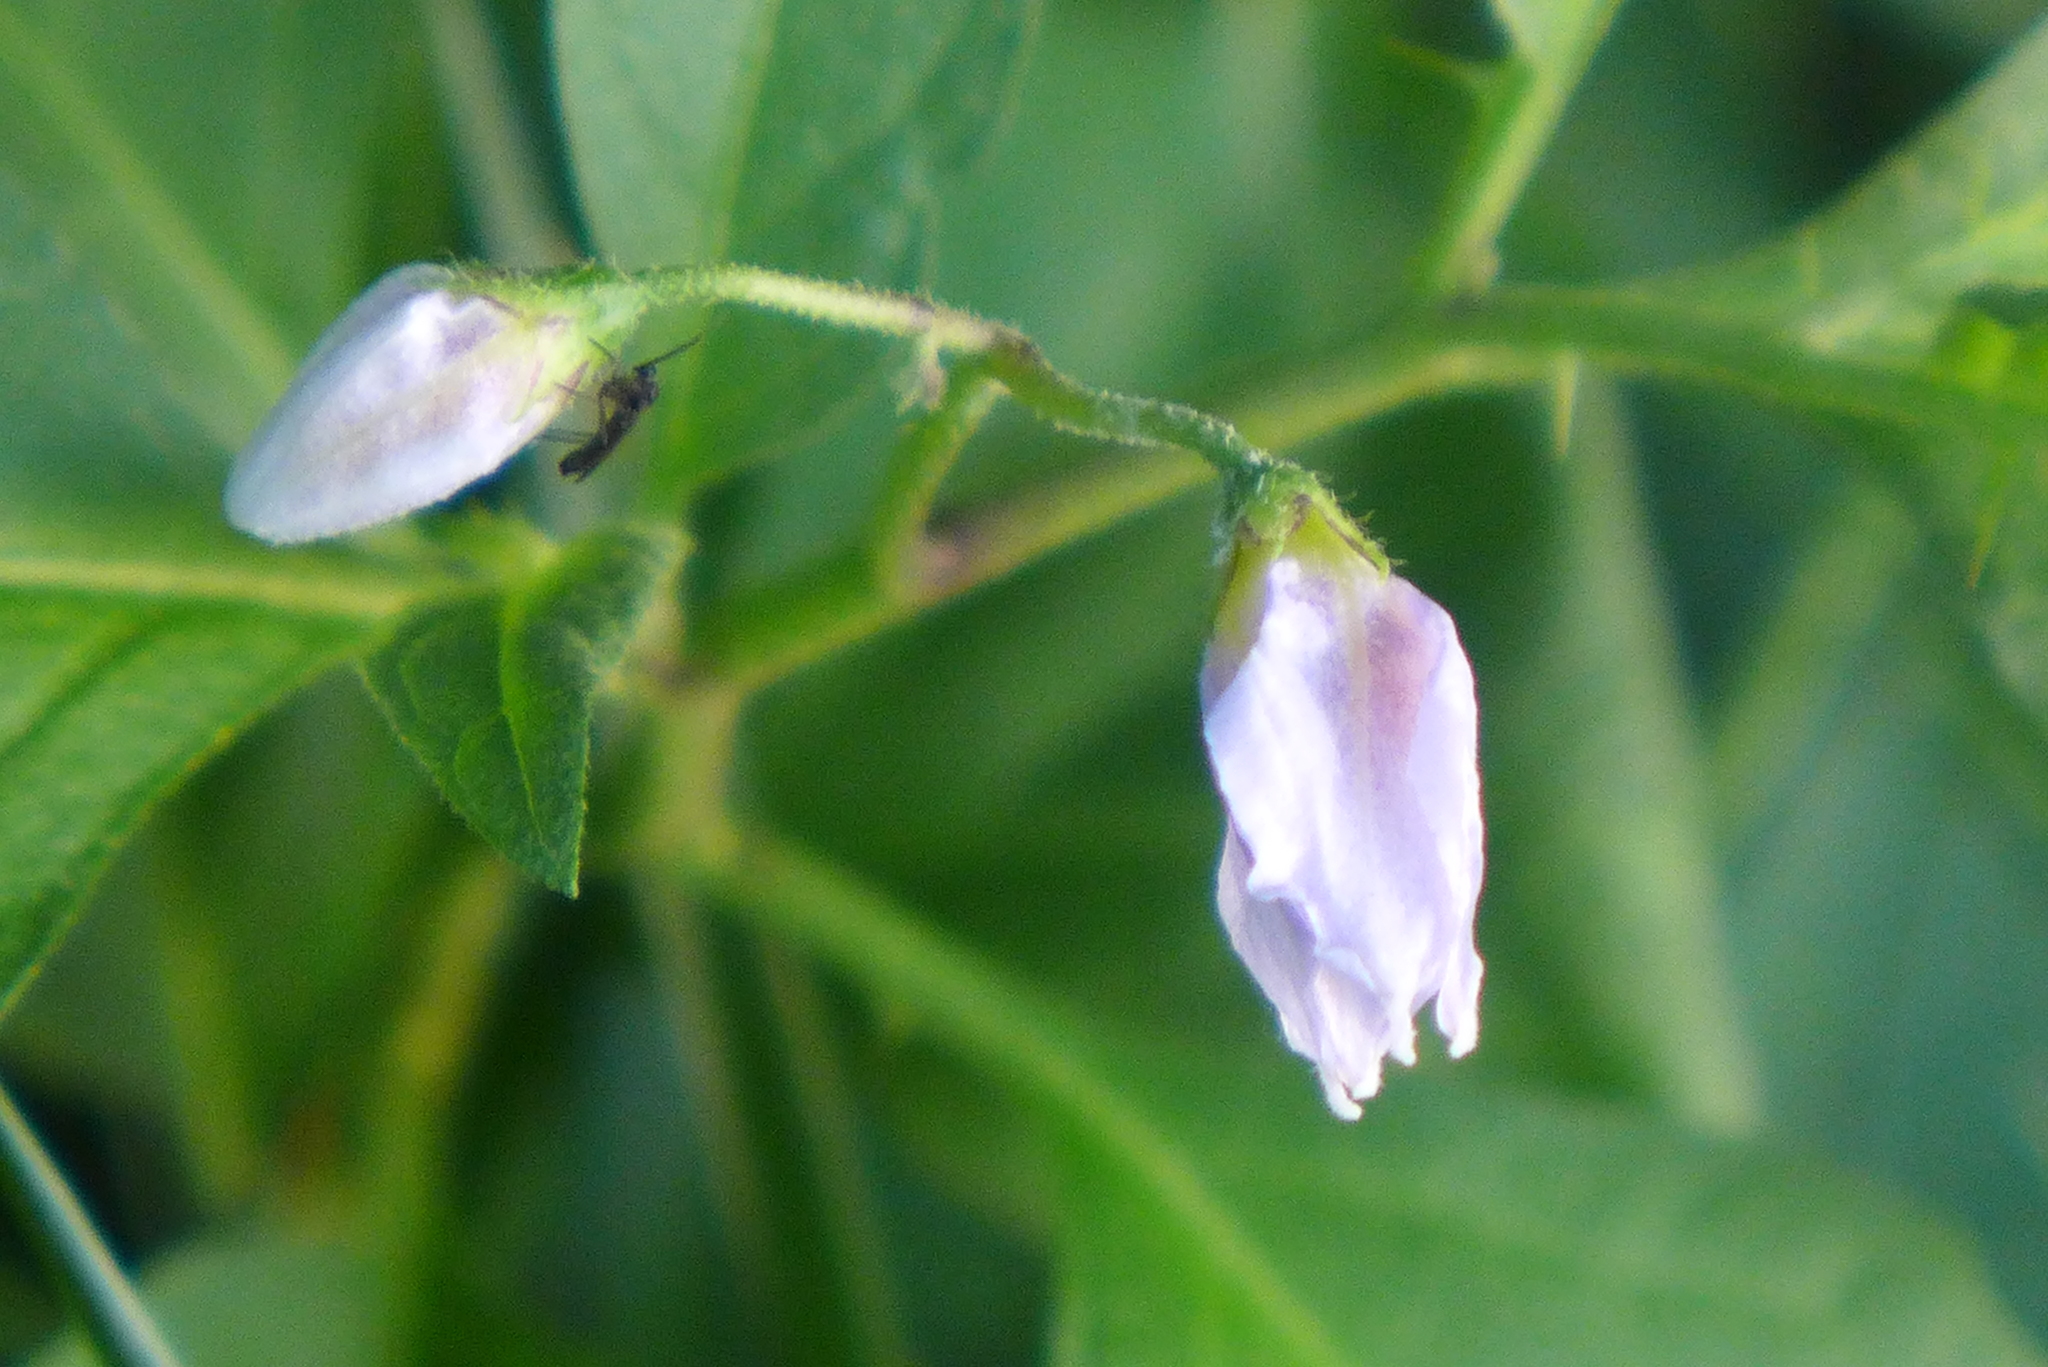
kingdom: Plantae
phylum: Tracheophyta
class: Magnoliopsida
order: Solanales
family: Solanaceae
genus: Solanum
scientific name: Solanum carolinense
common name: Horse-nettle
